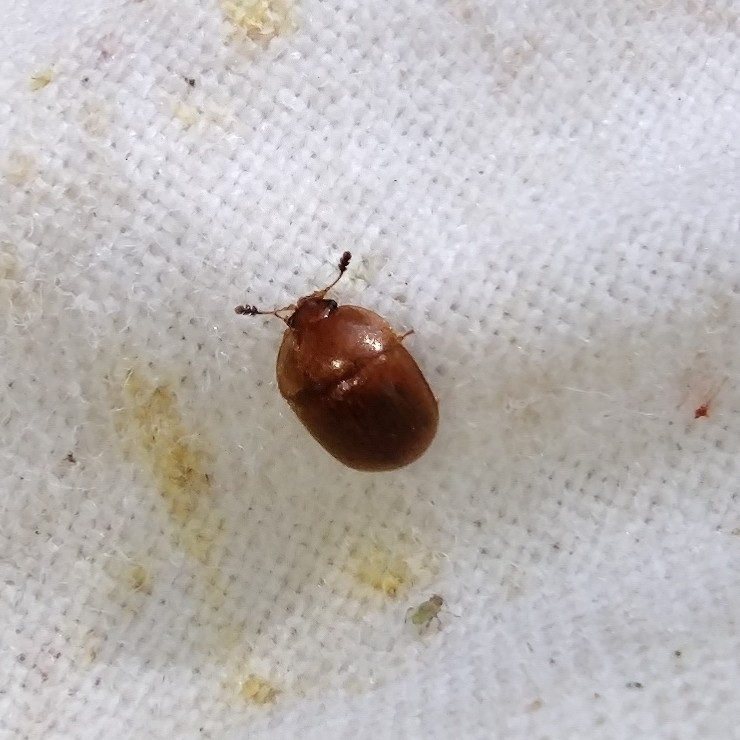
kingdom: Animalia
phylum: Arthropoda
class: Insecta
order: Coleoptera
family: Nitidulidae
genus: Cychramus
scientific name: Cychramus luteus
